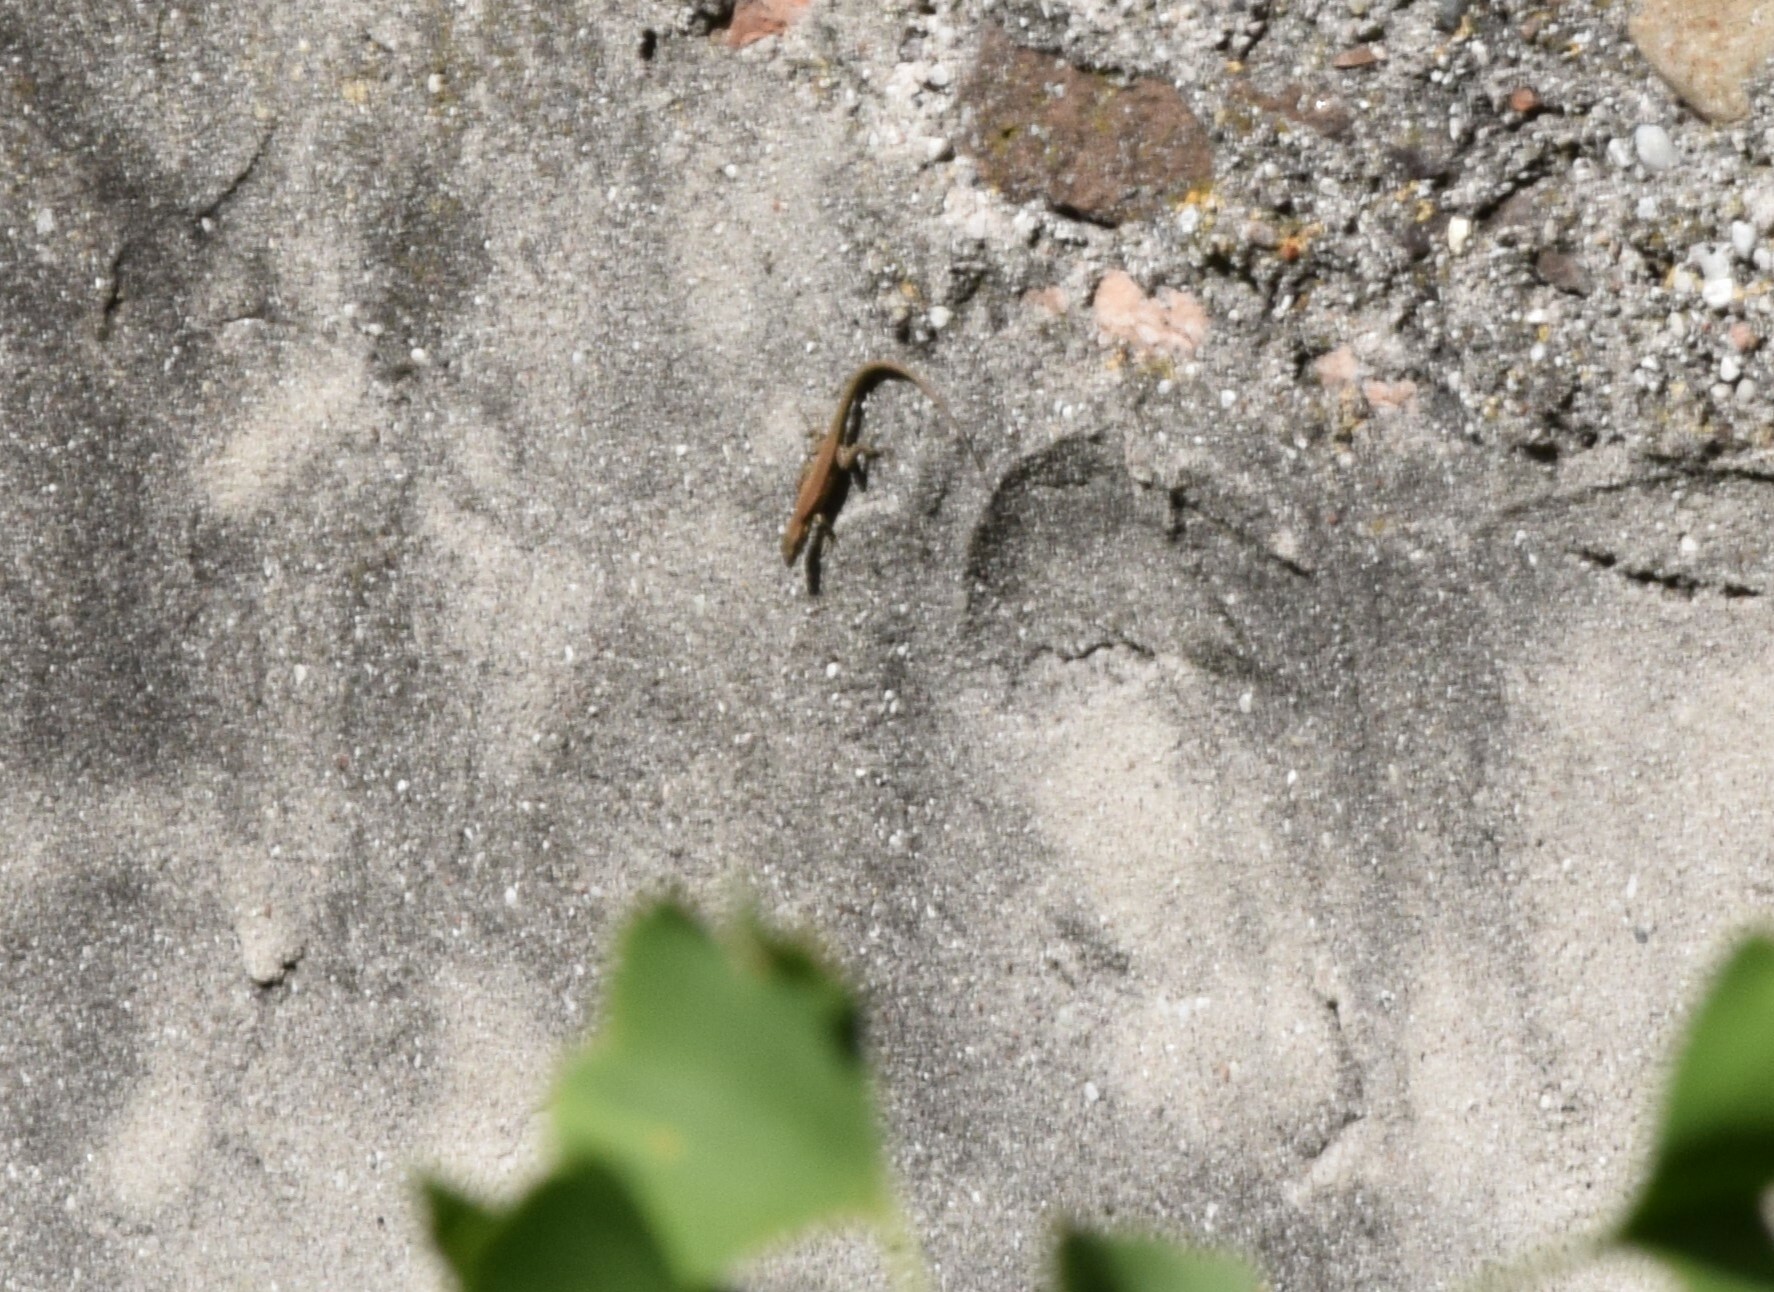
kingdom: Animalia
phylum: Chordata
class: Squamata
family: Lacertidae
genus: Podarcis
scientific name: Podarcis muralis
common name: Common wall lizard
